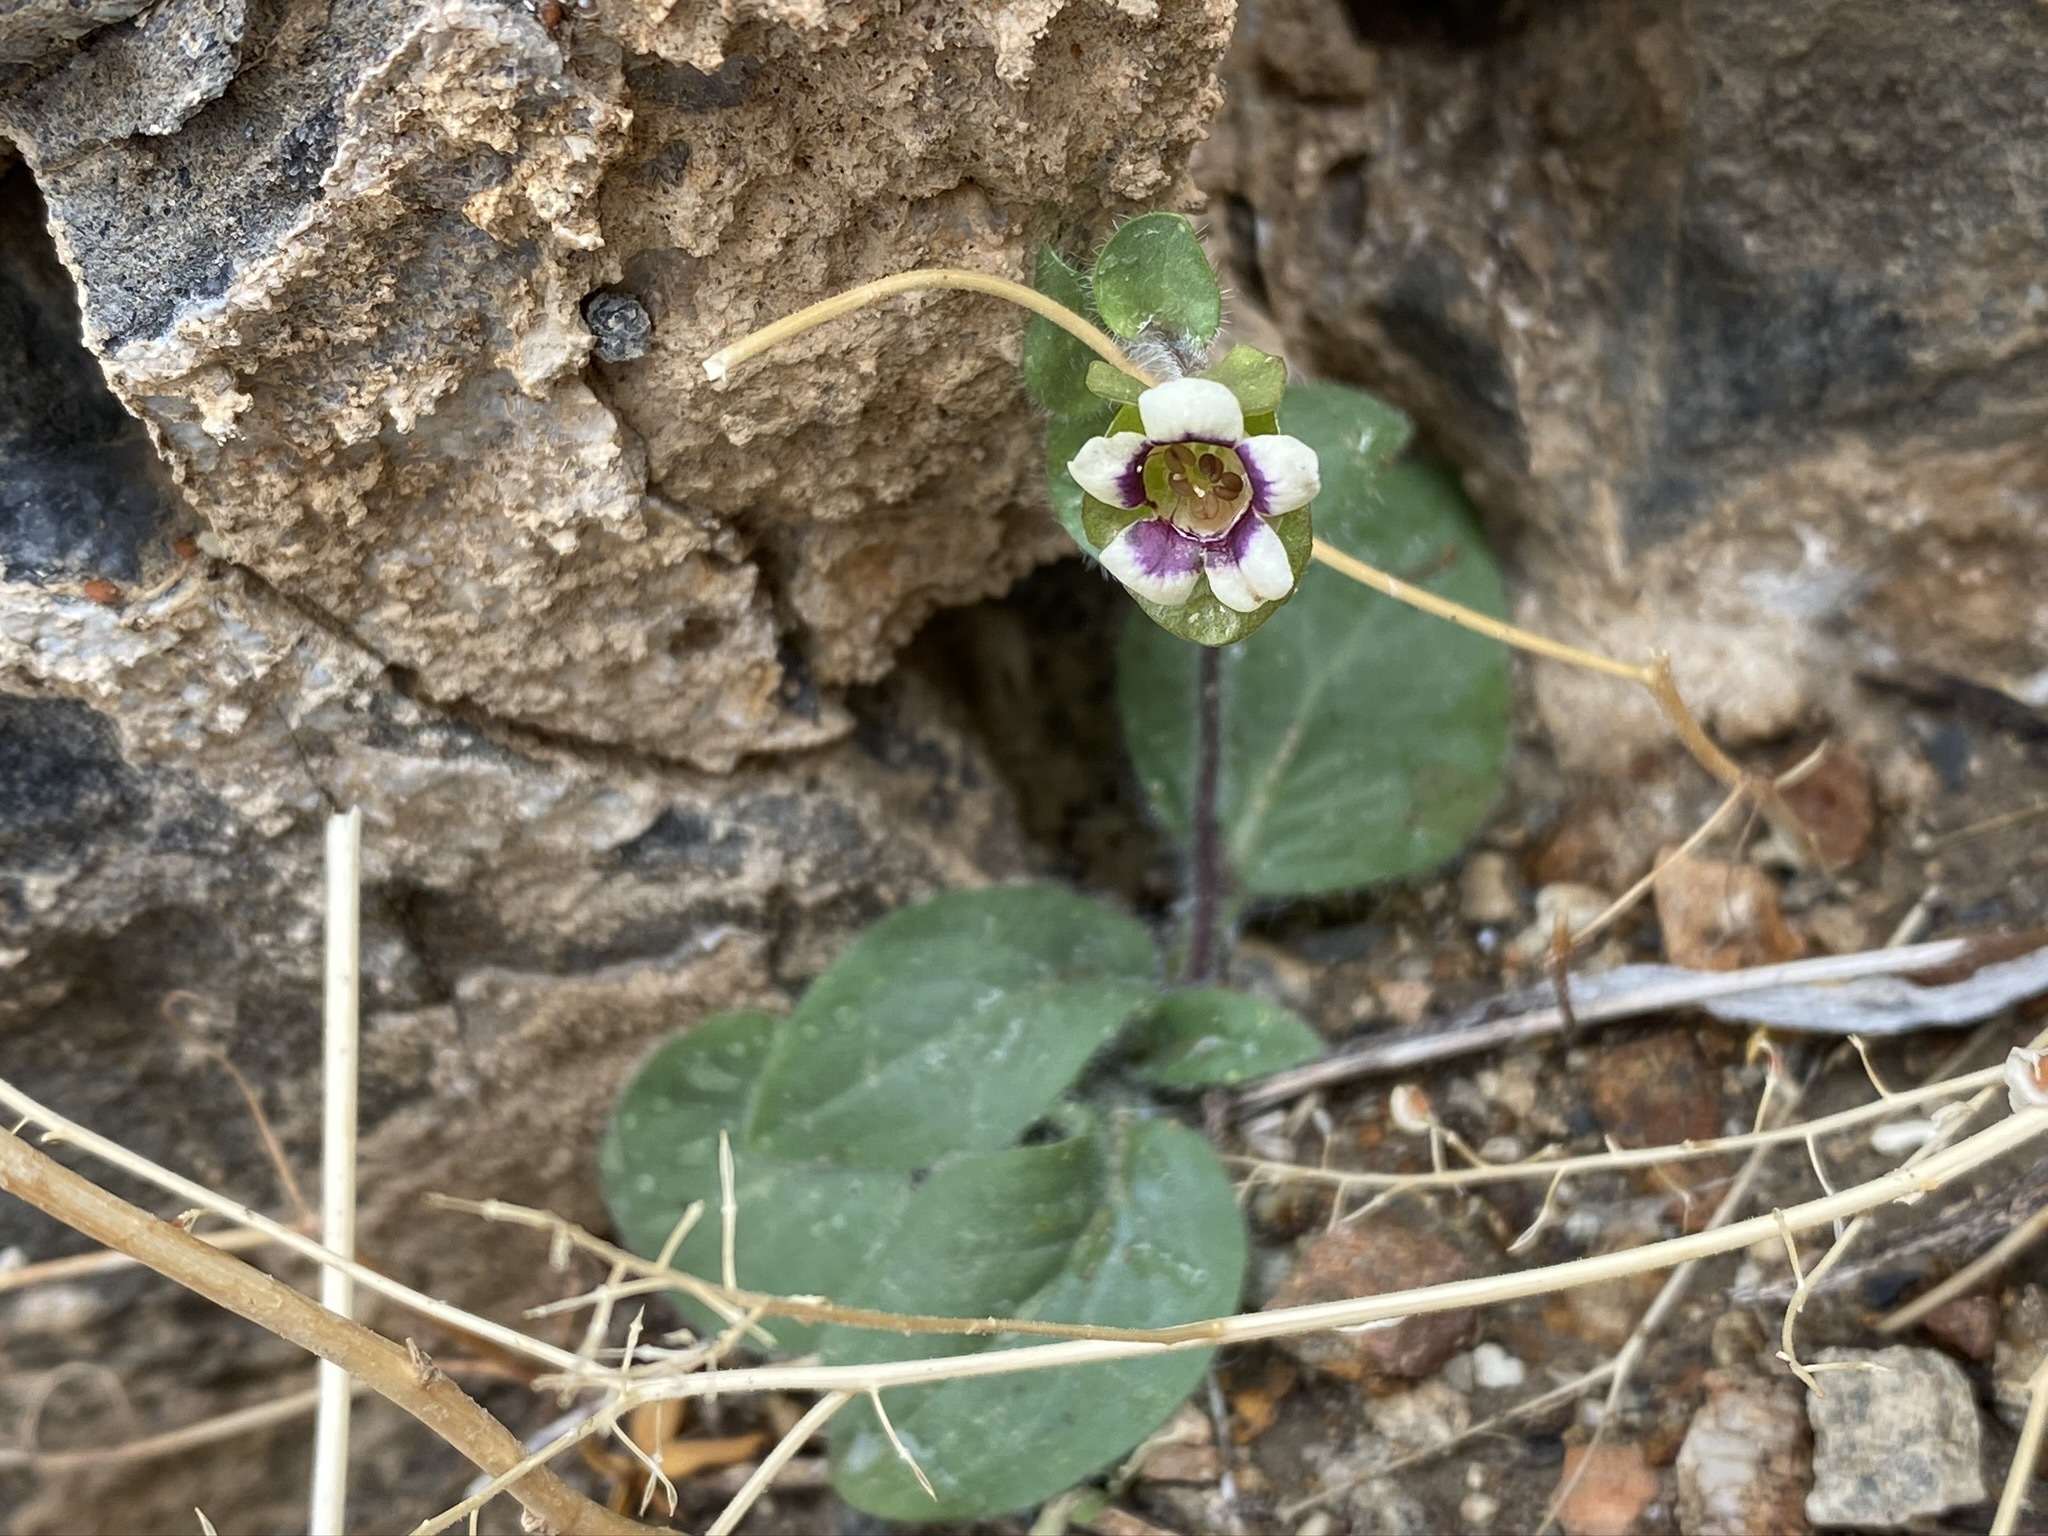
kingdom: Plantae
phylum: Tracheophyta
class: Magnoliopsida
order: Boraginales
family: Hydrophyllaceae
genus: Tricardia
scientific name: Tricardia watsonii
